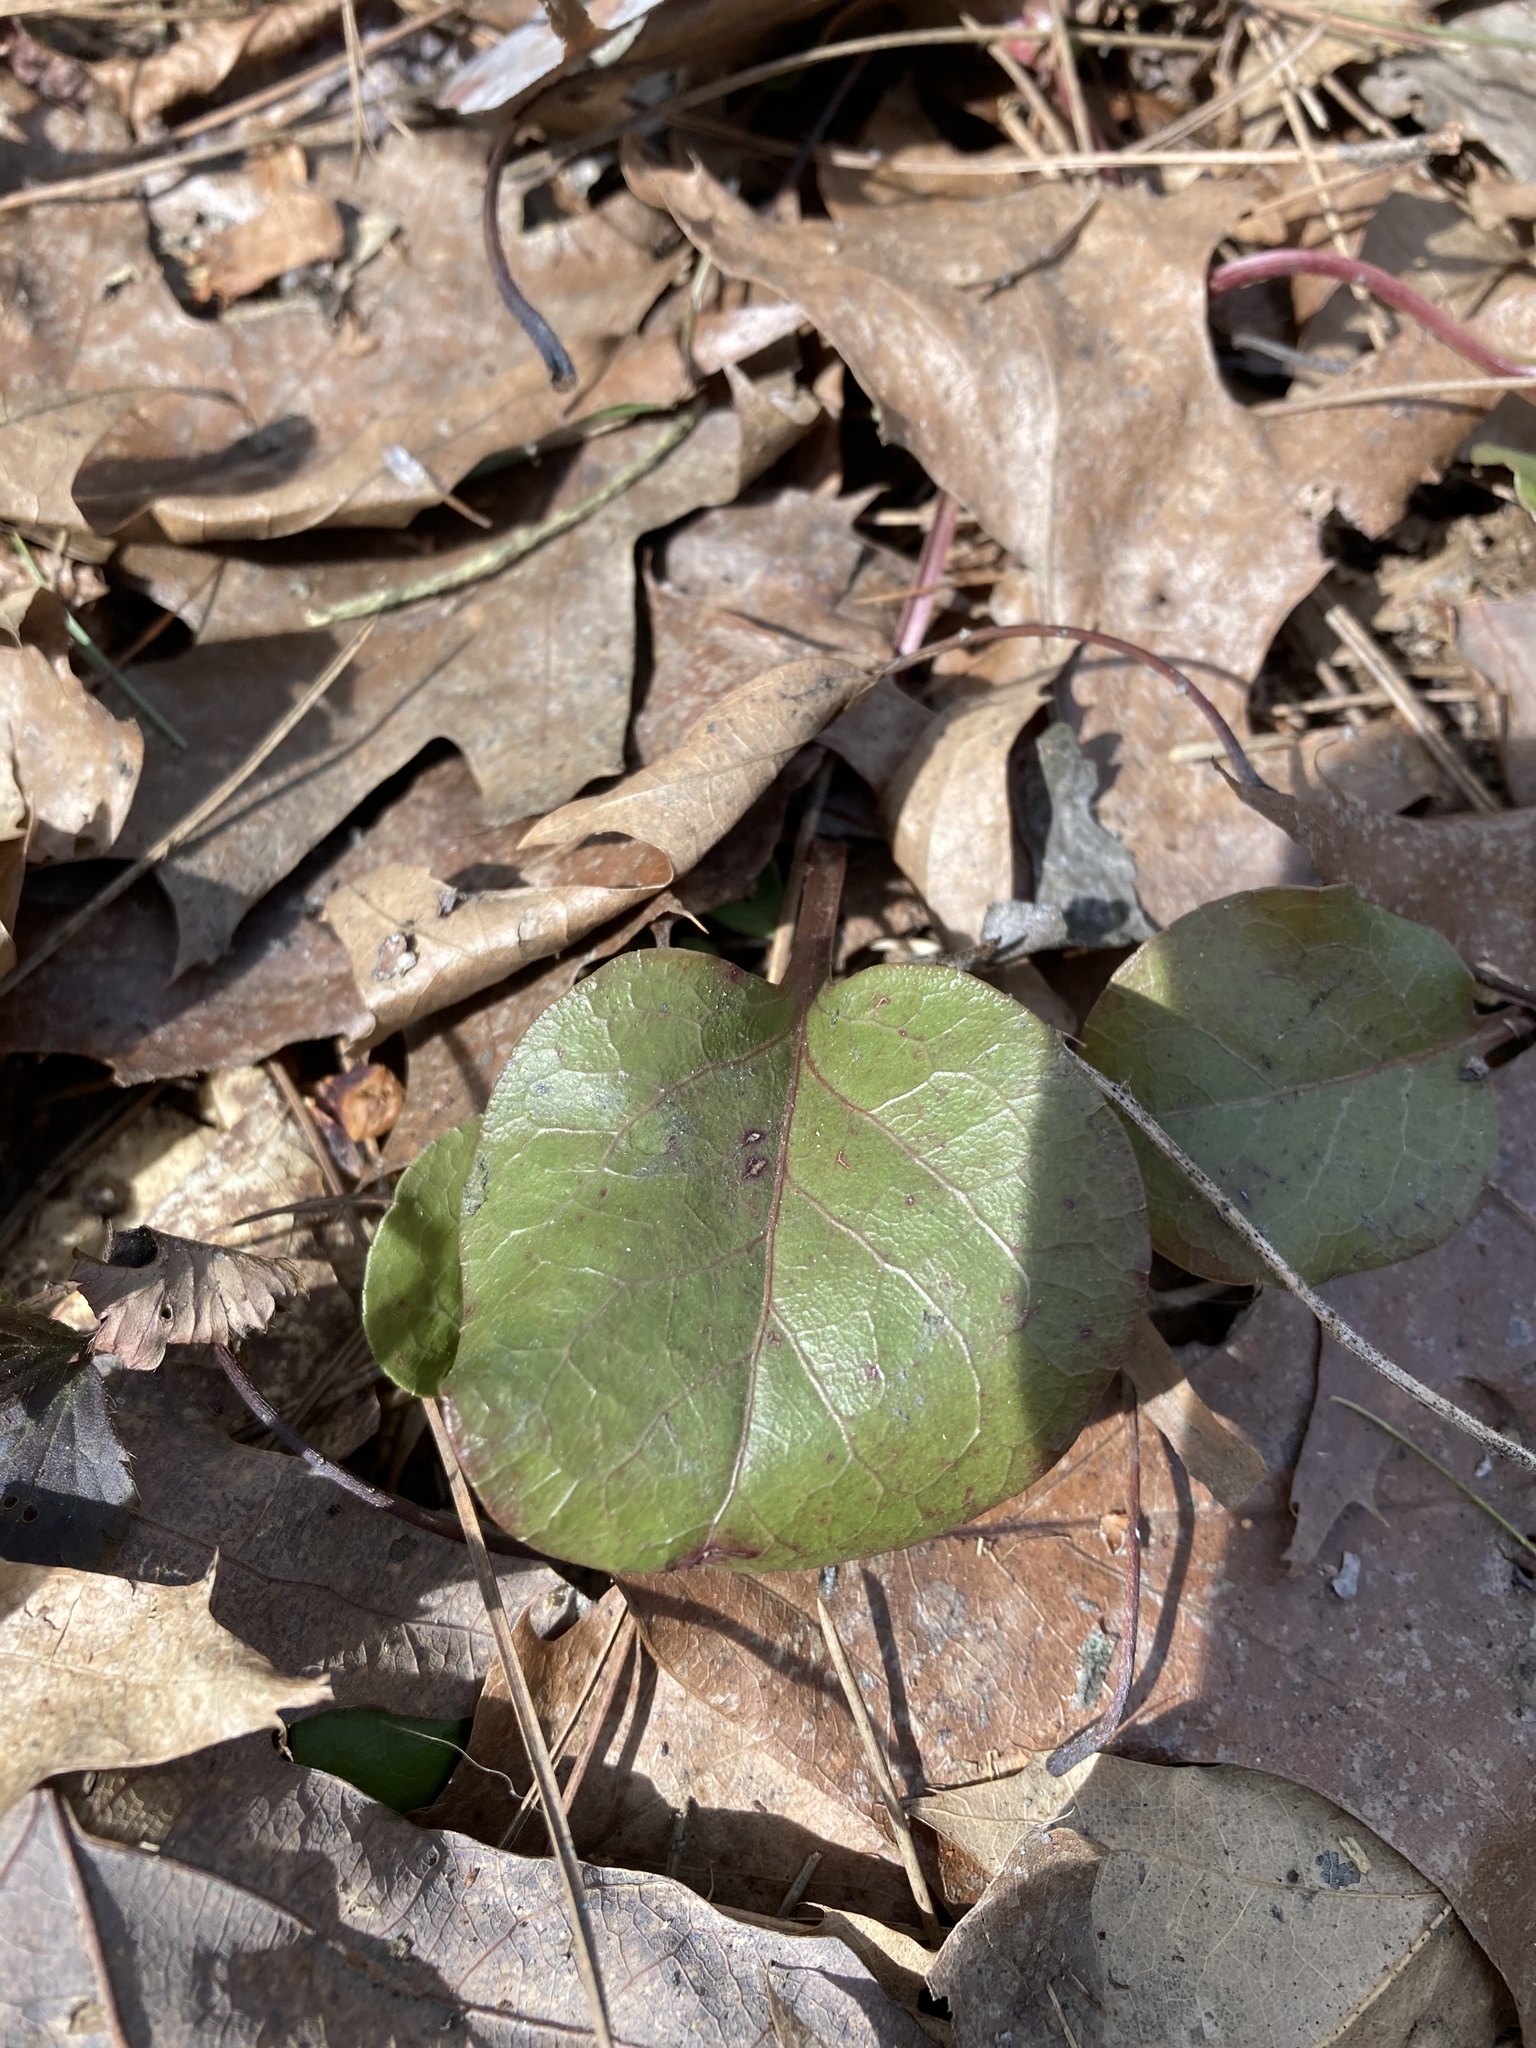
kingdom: Plantae
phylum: Tracheophyta
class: Magnoliopsida
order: Ericales
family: Ericaceae
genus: Pyrola
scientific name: Pyrola americana
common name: American wintergreen
